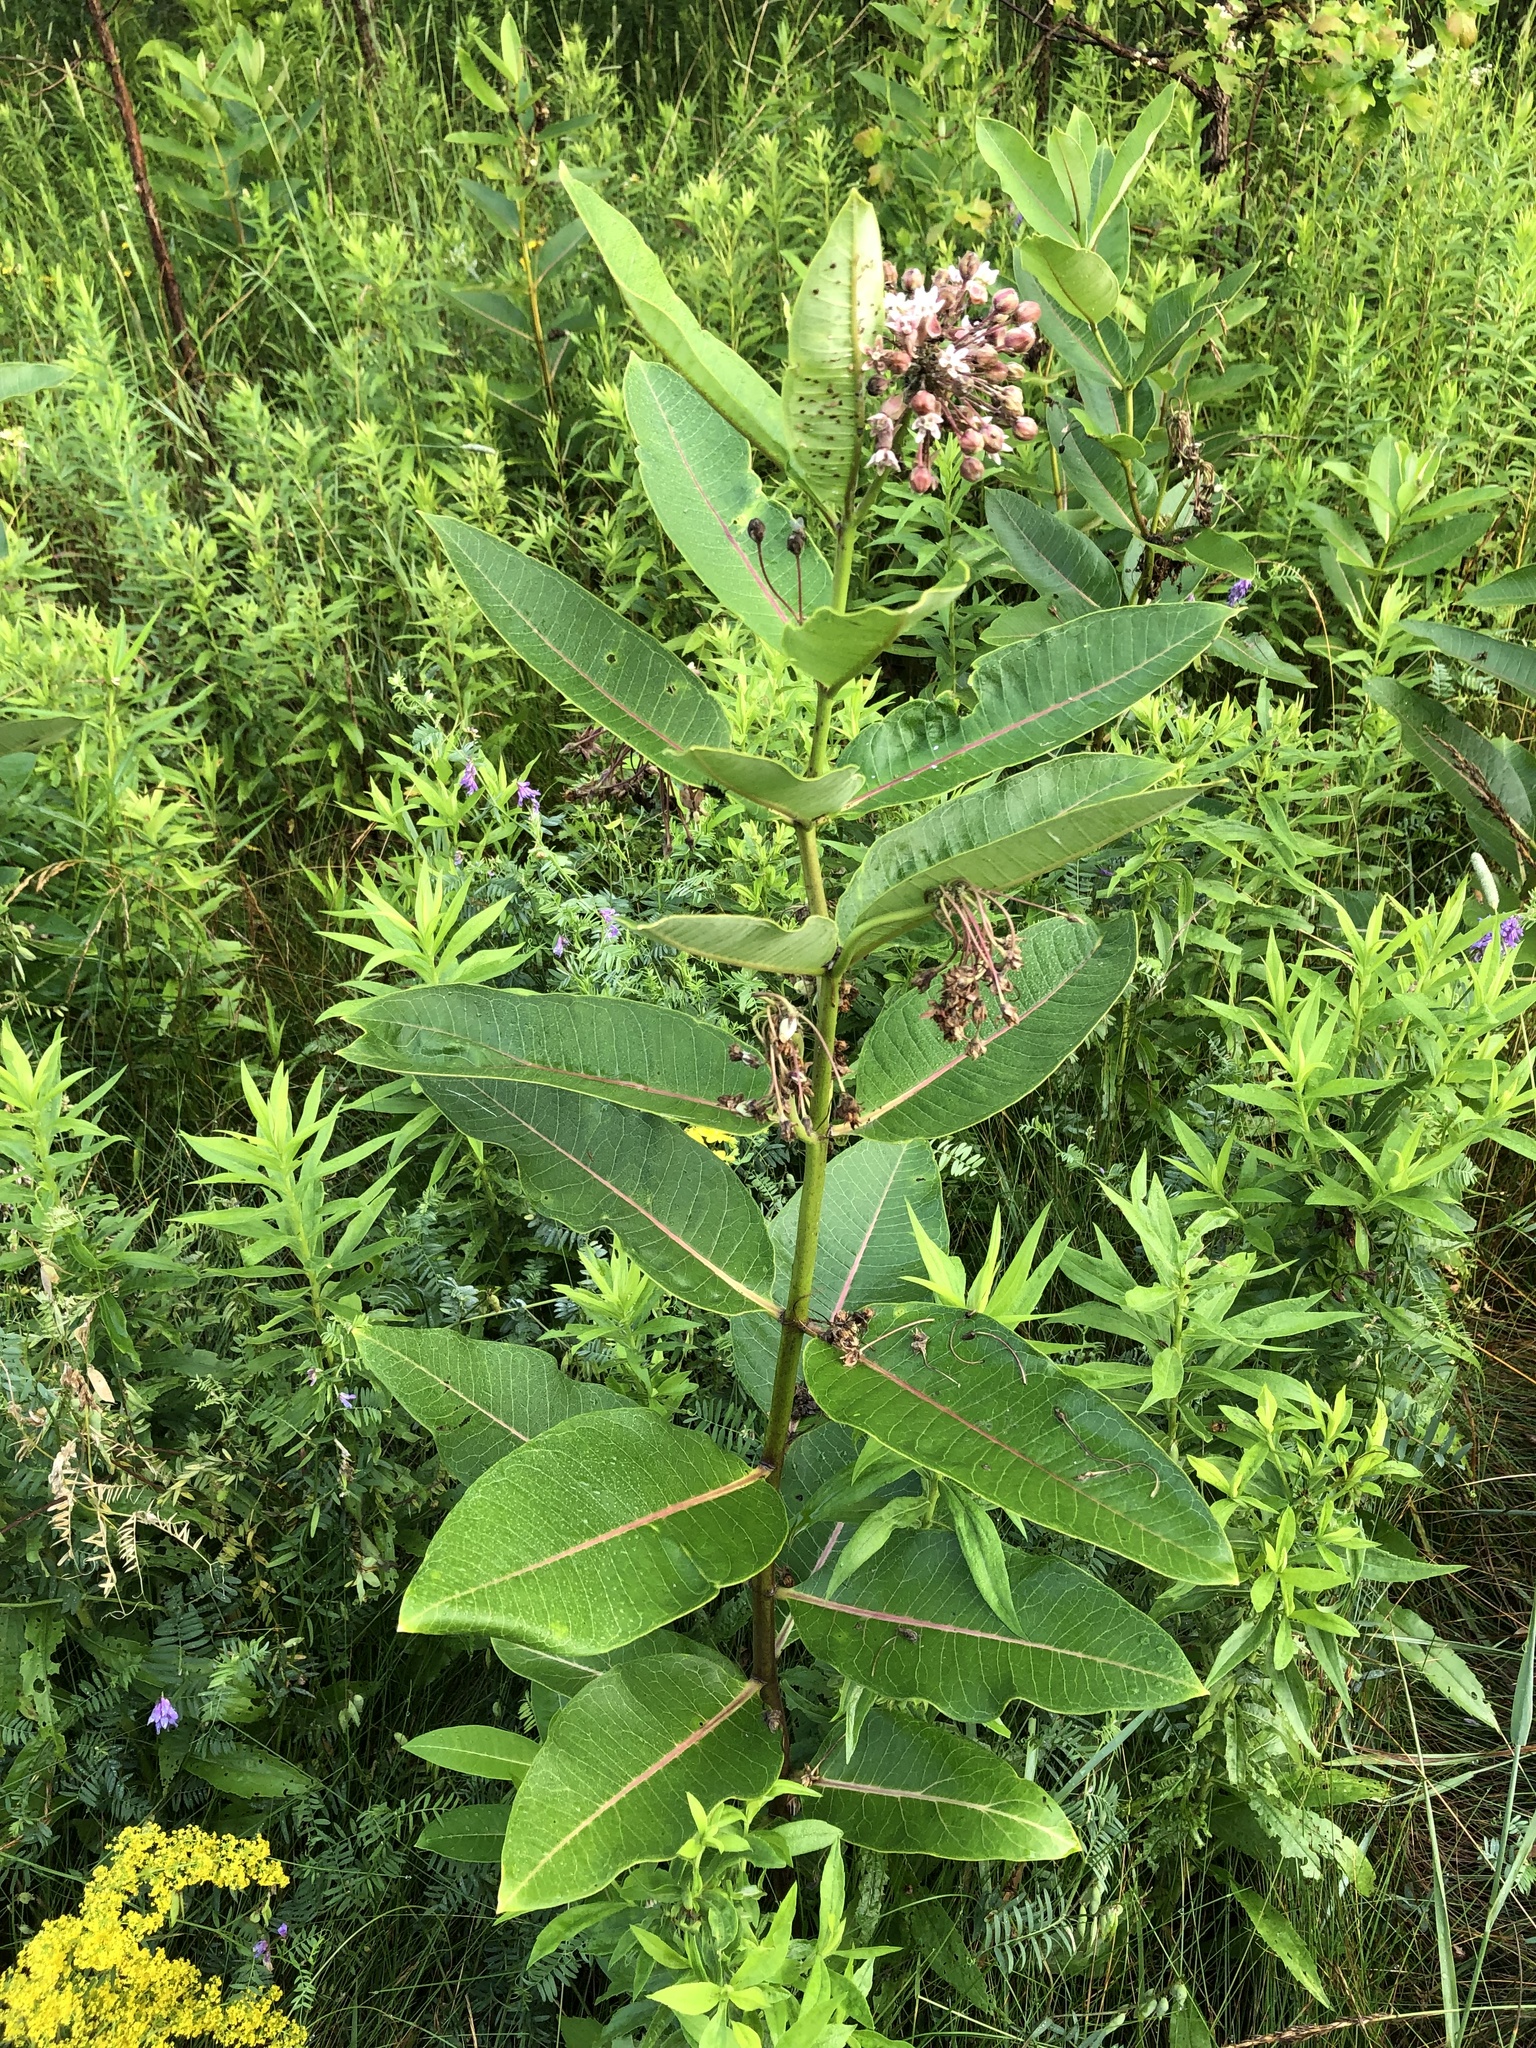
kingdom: Plantae
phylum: Tracheophyta
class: Magnoliopsida
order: Gentianales
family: Apocynaceae
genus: Asclepias
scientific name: Asclepias syriaca
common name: Common milkweed
